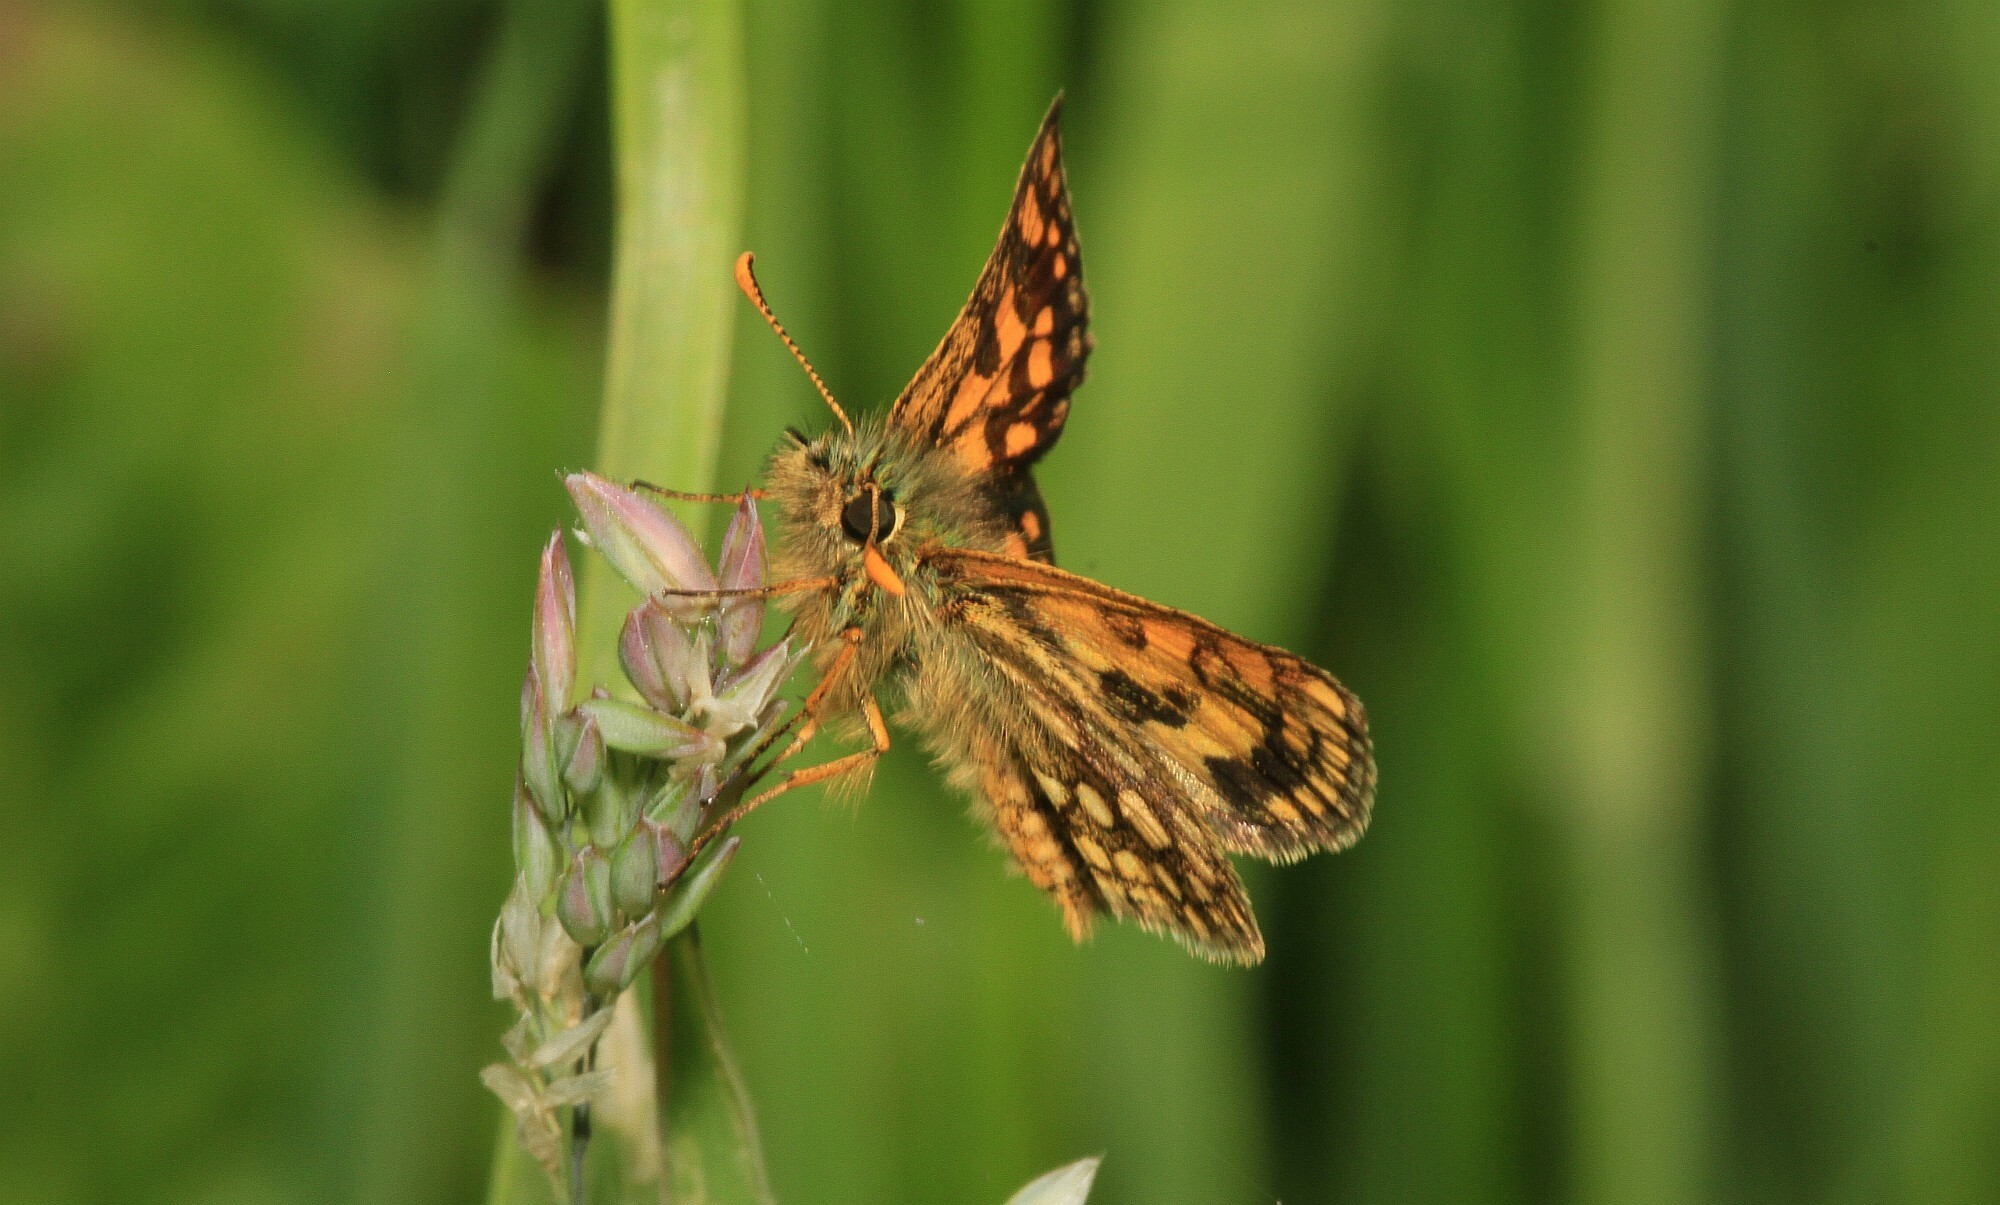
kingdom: Animalia
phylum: Arthropoda
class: Insecta
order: Lepidoptera
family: Hesperiidae
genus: Carterocephalus
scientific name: Carterocephalus palaemon
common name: Chequered skipper
